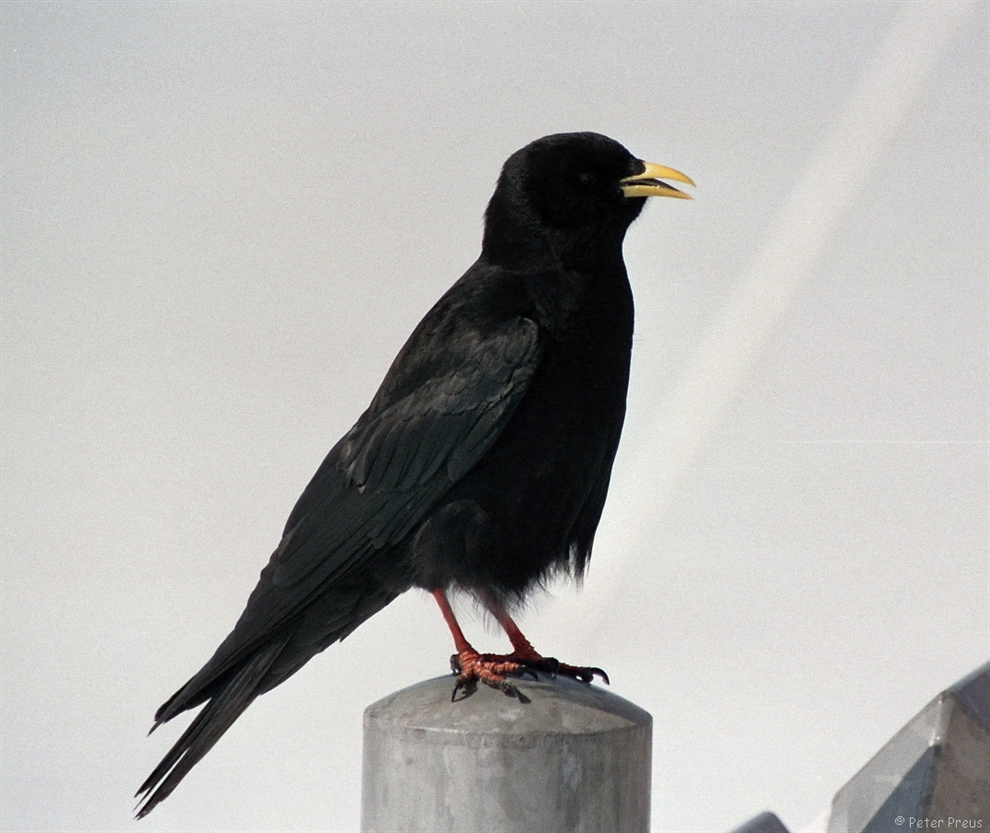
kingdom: Animalia
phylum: Chordata
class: Aves
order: Passeriformes
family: Corvidae
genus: Pyrrhocorax
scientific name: Pyrrhocorax graculus
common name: Alpine chough
